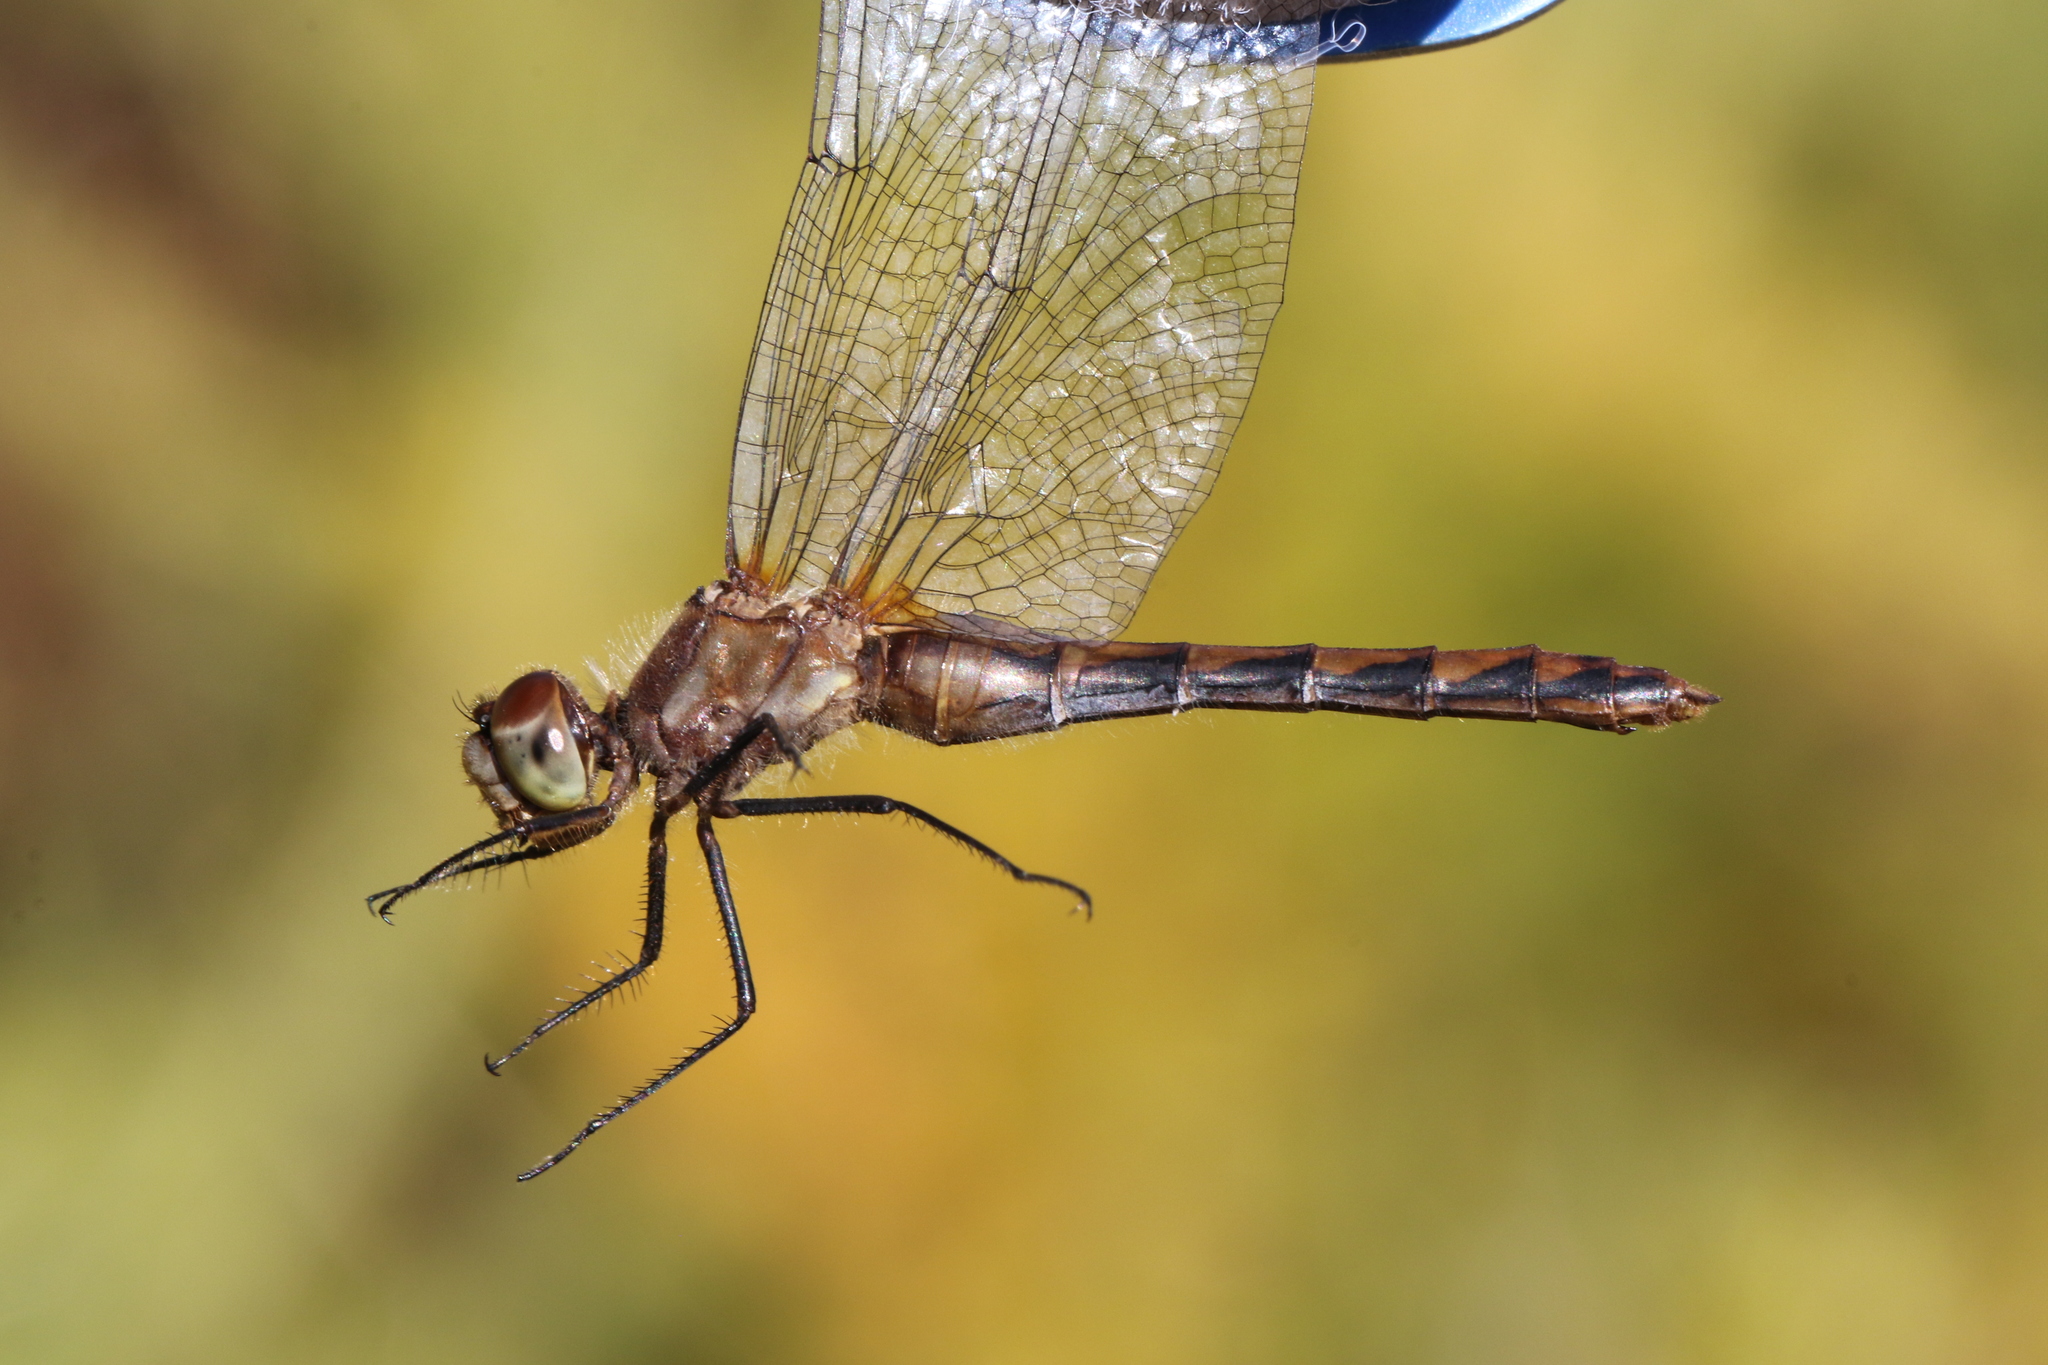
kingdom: Animalia
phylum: Arthropoda
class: Insecta
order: Odonata
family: Libellulidae
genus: Sympetrum
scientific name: Sympetrum obtrusum
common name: White-faced meadowhawk
